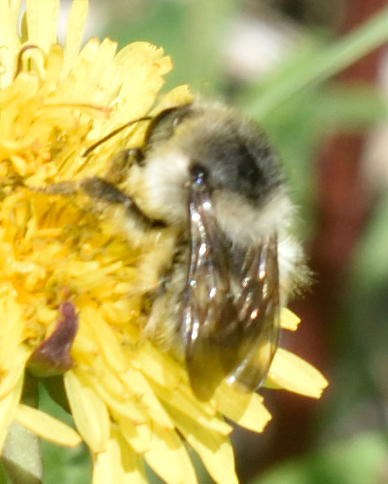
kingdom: Animalia
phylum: Arthropoda
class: Insecta
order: Hymenoptera
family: Apidae
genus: Bombus
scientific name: Bombus deuteronymus
